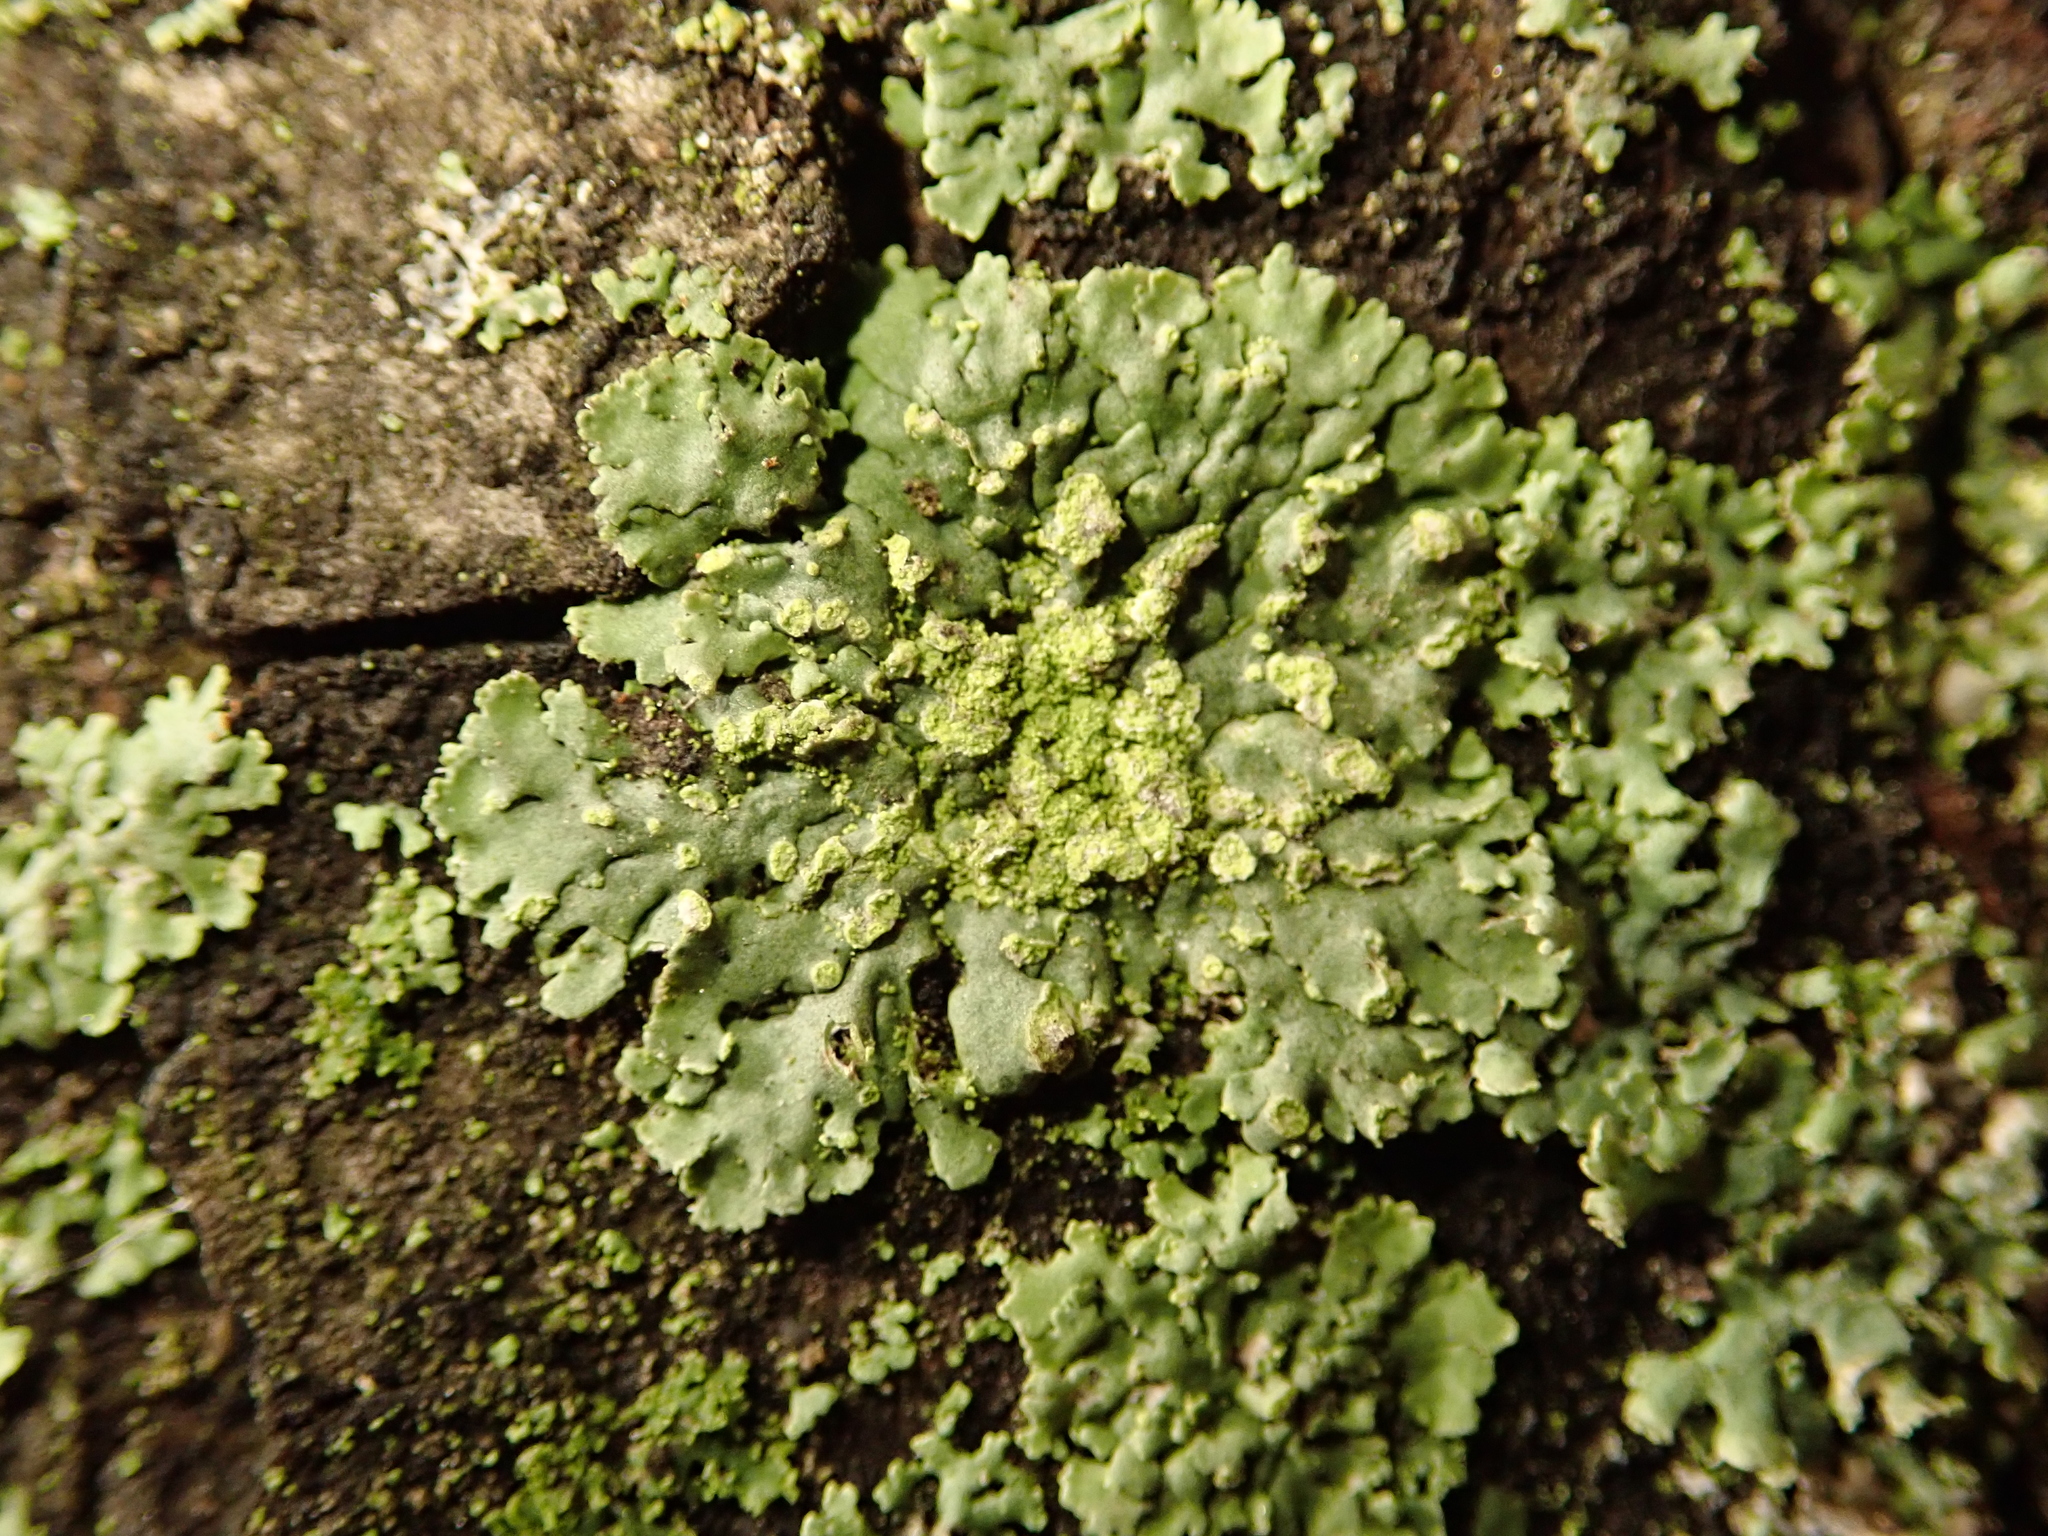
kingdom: Fungi
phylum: Ascomycota
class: Lecanoromycetes
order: Caliciales
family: Physciaceae
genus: Phaeophyscia
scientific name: Phaeophyscia orbicularis
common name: Mealy shadow lichen
